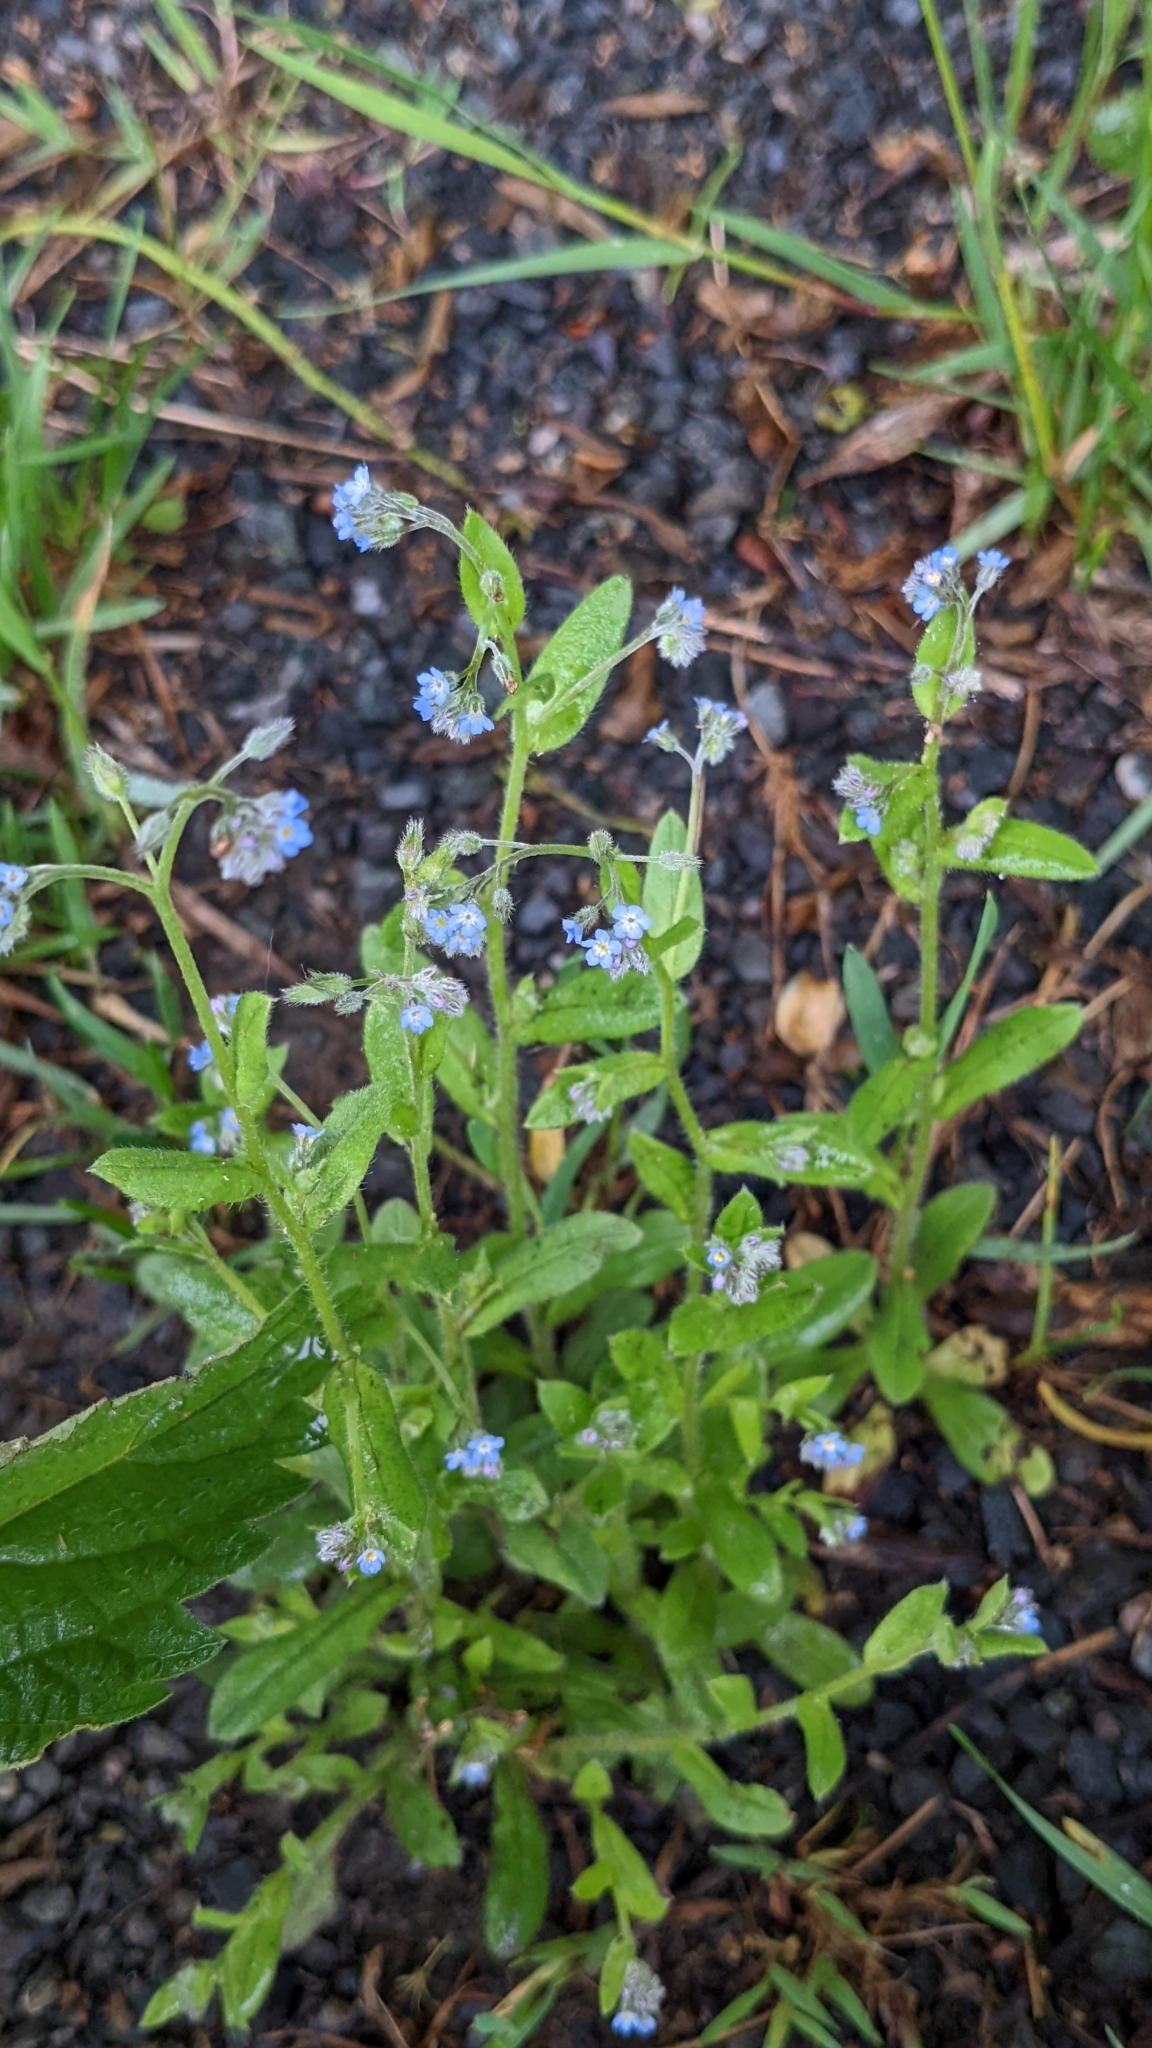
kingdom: Plantae
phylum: Tracheophyta
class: Magnoliopsida
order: Boraginales
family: Boraginaceae
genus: Myosotis
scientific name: Myosotis arvensis
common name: Field forget-me-not
